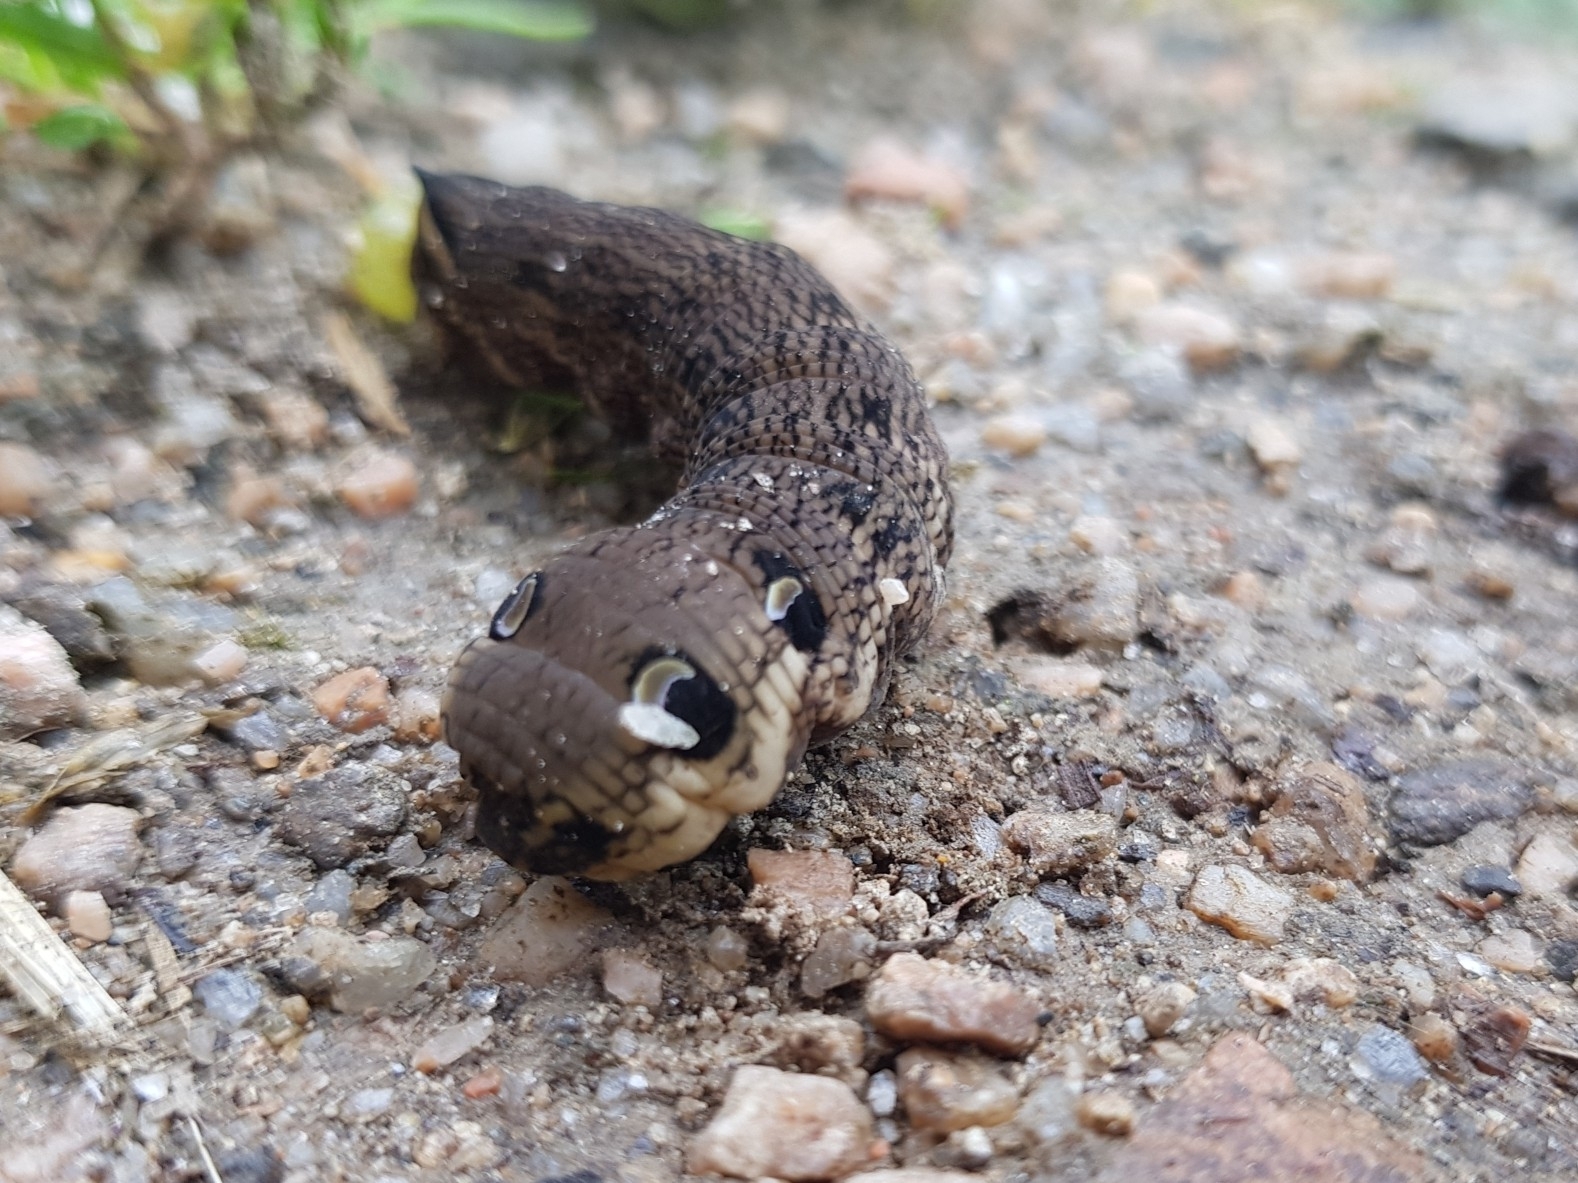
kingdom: Animalia
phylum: Arthropoda
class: Insecta
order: Lepidoptera
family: Sphingidae
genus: Deilephila
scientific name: Deilephila elpenor
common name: Elephant hawk-moth
